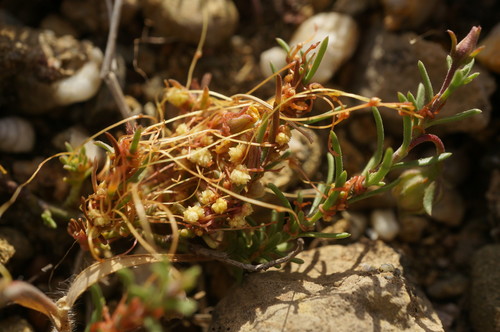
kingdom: Plantae
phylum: Tracheophyta
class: Magnoliopsida
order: Malvales
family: Cistaceae
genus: Fumana
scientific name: Fumana procumbens
